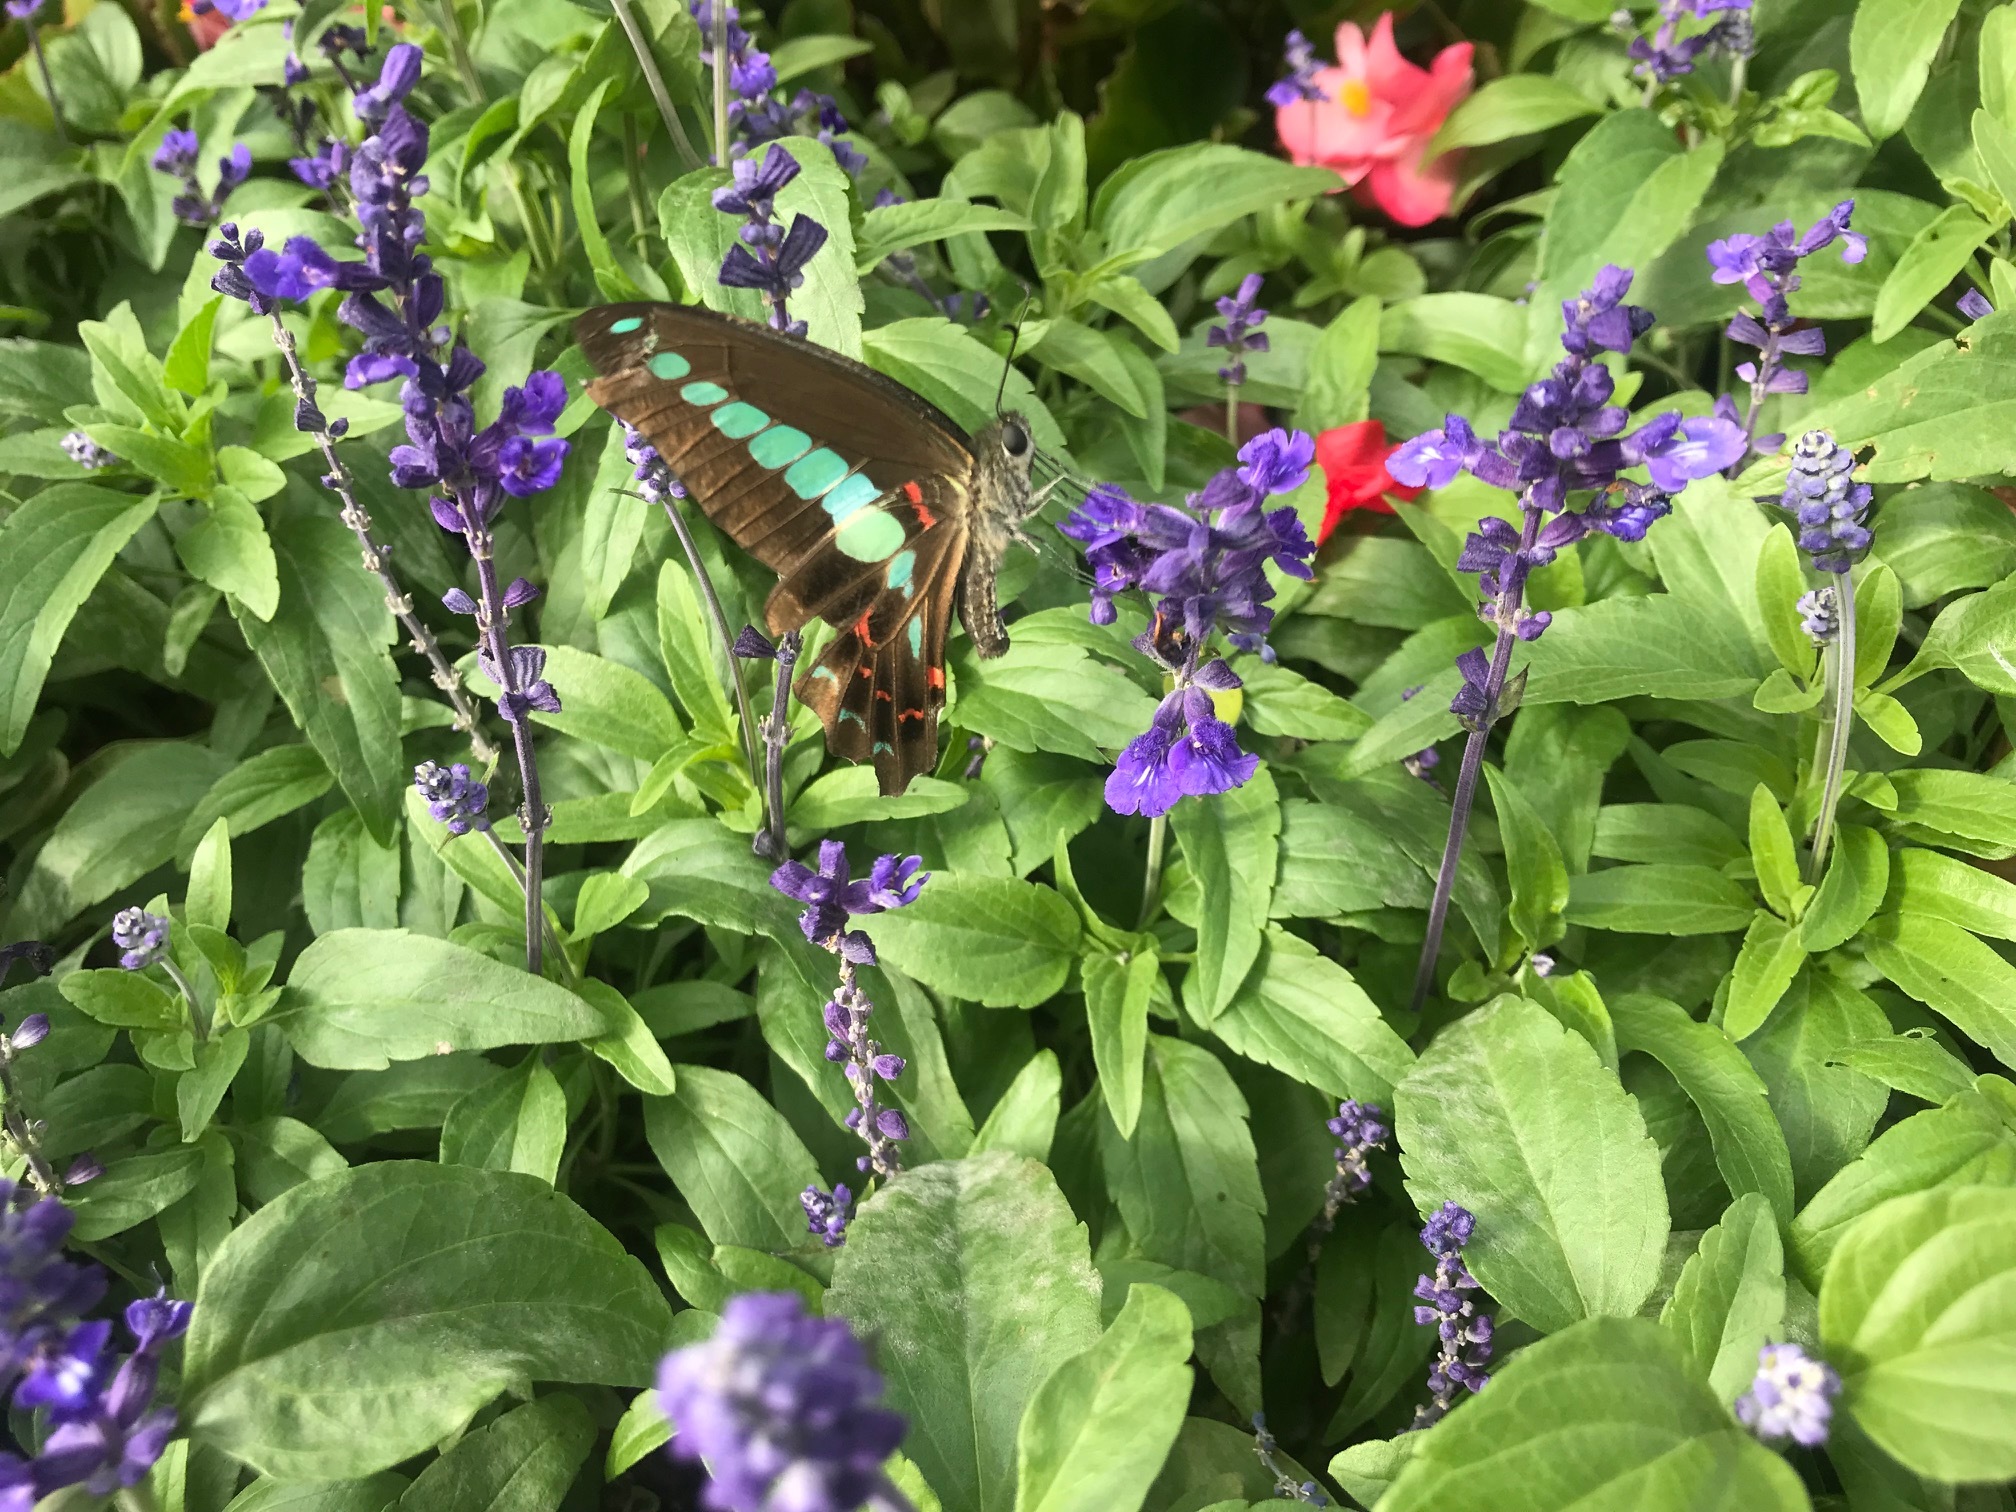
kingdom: Fungi
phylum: Ascomycota
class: Sordariomycetes
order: Microascales
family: Microascaceae
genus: Graphium
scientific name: Graphium sarpedon
